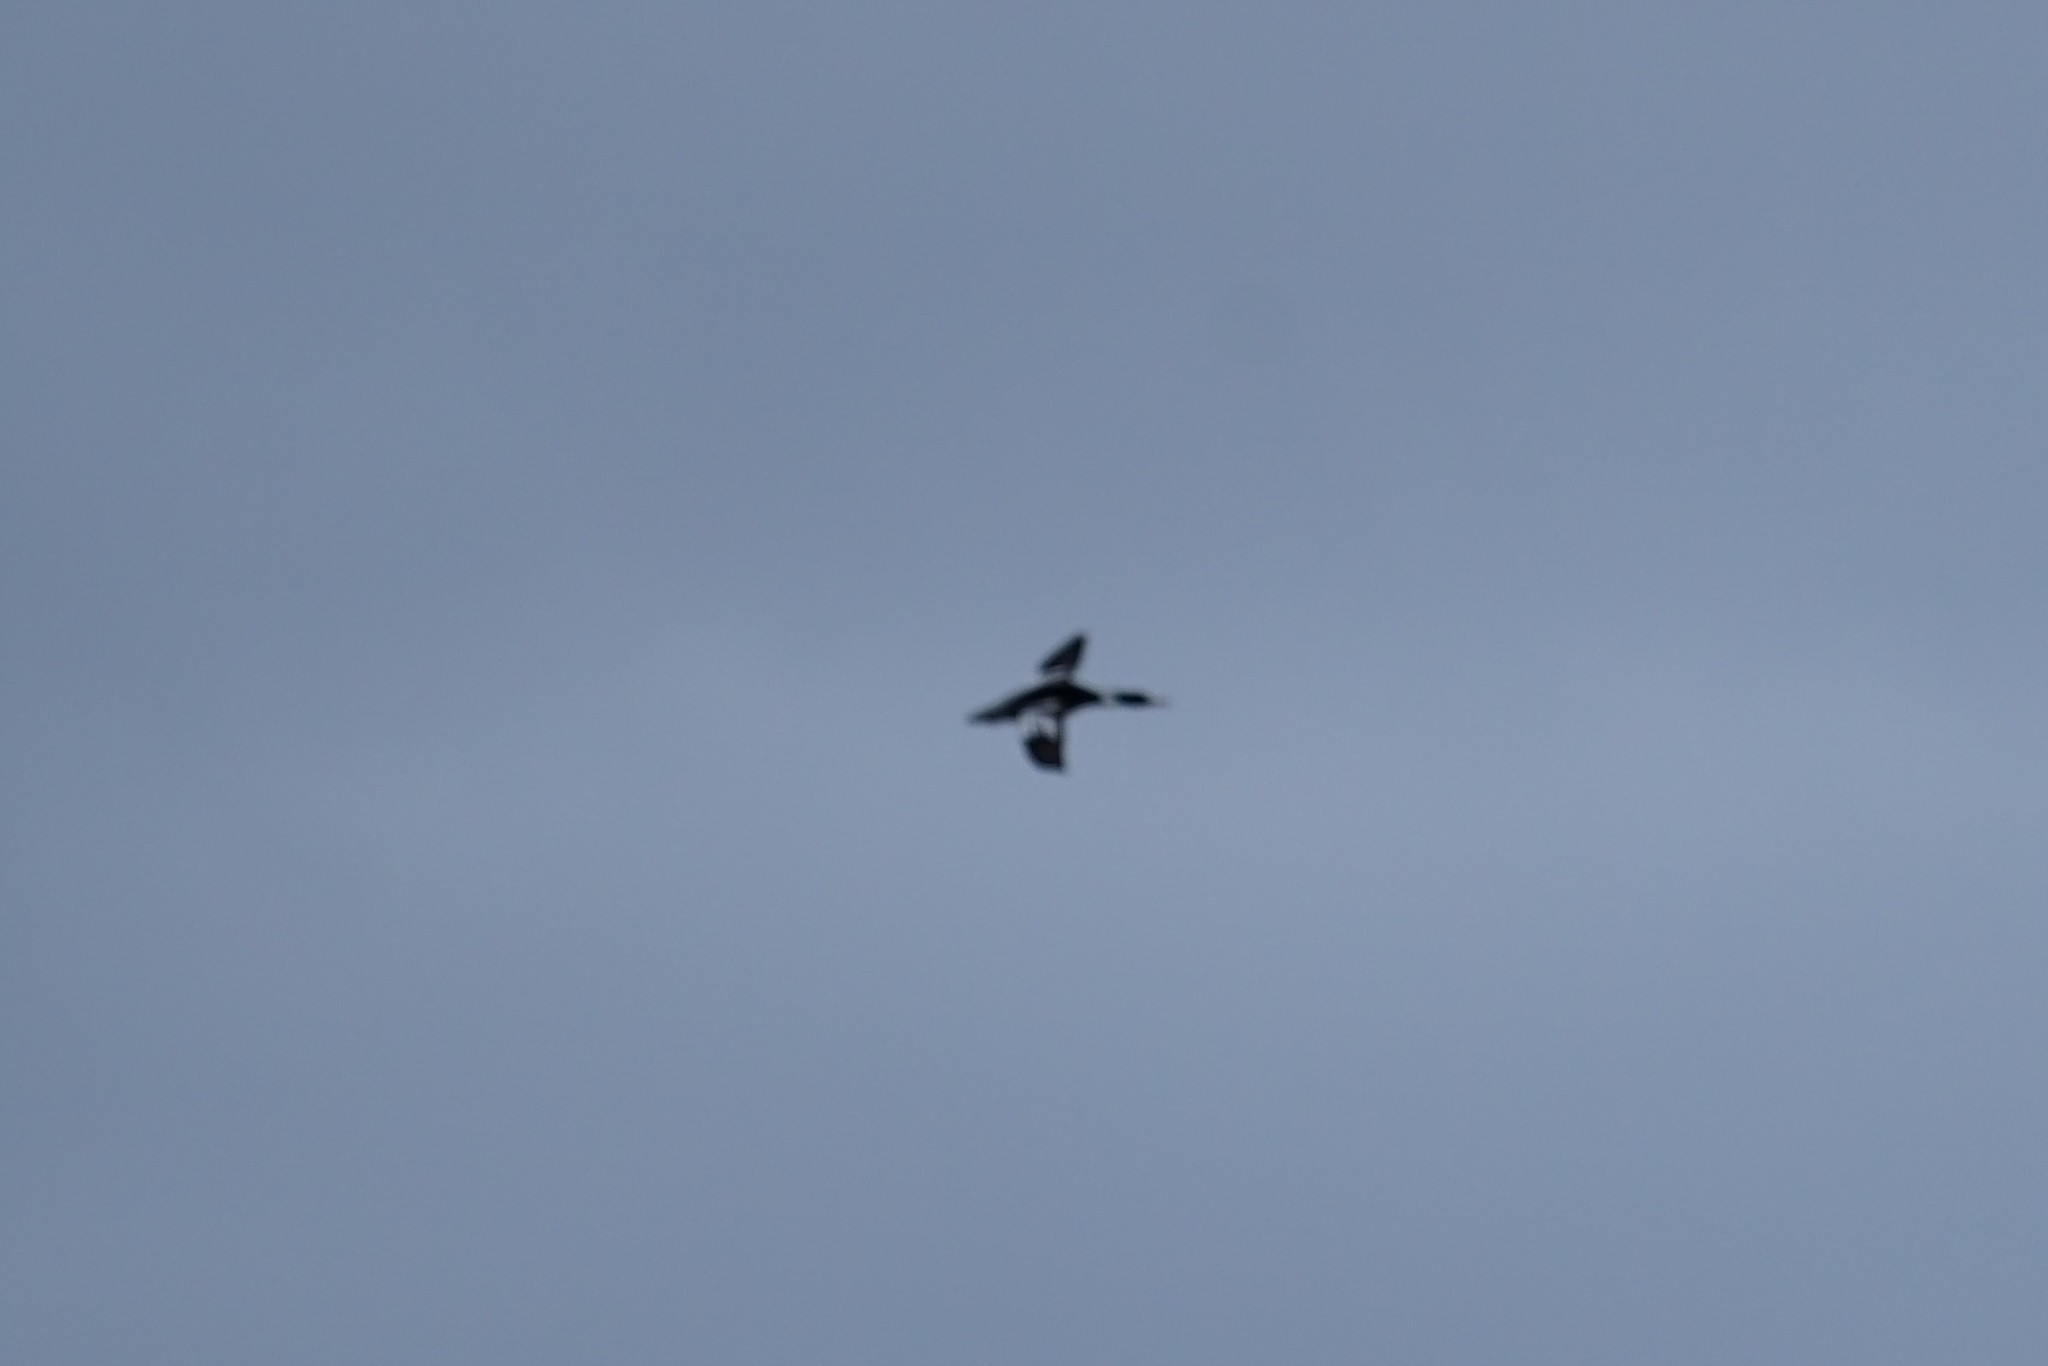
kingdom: Animalia
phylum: Chordata
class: Aves
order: Anseriformes
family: Anatidae
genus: Mergus
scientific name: Mergus serrator
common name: Red-breasted merganser
